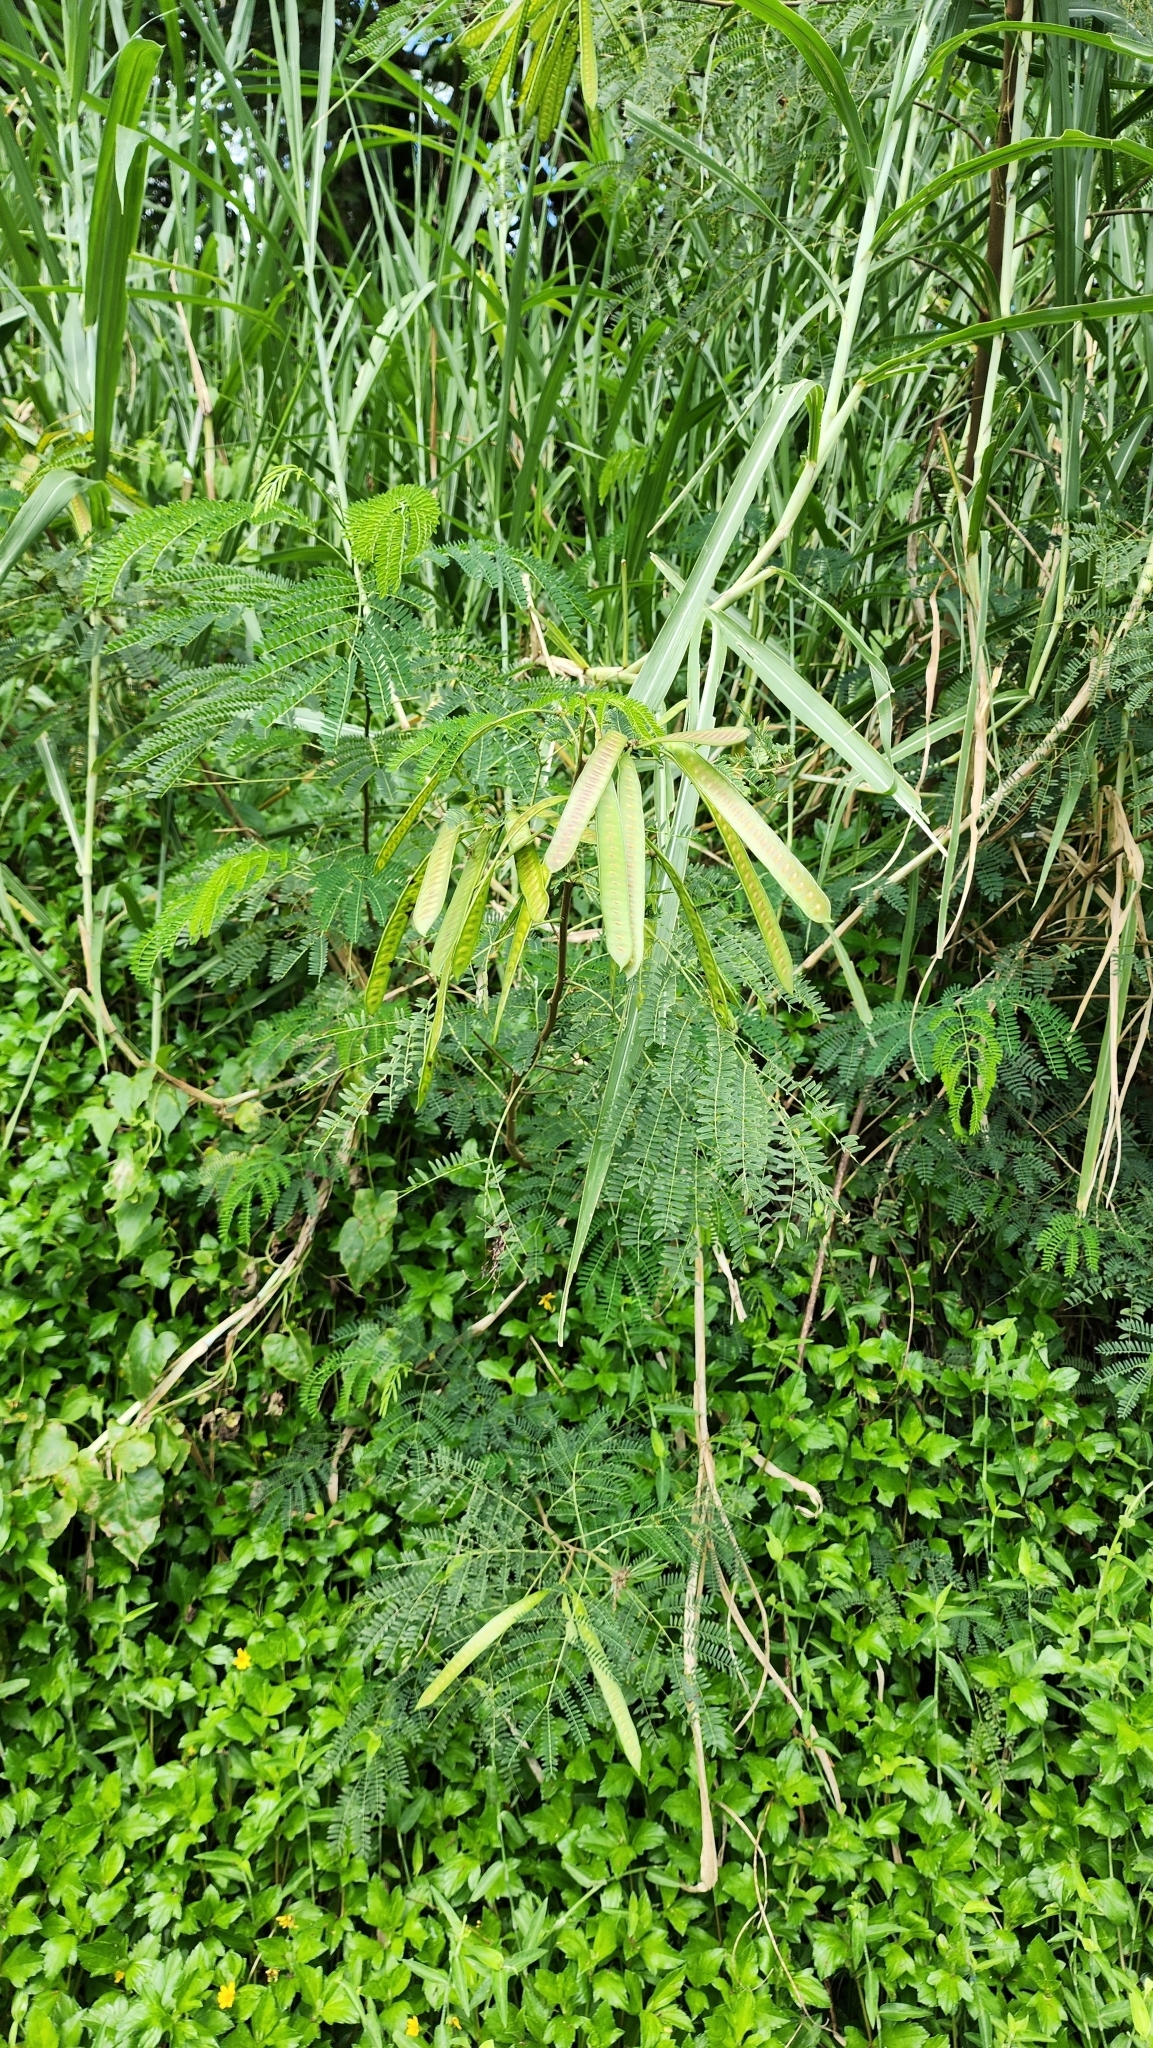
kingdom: Plantae
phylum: Tracheophyta
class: Magnoliopsida
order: Fabales
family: Fabaceae
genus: Leucaena
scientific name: Leucaena leucocephala
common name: White leadtree
